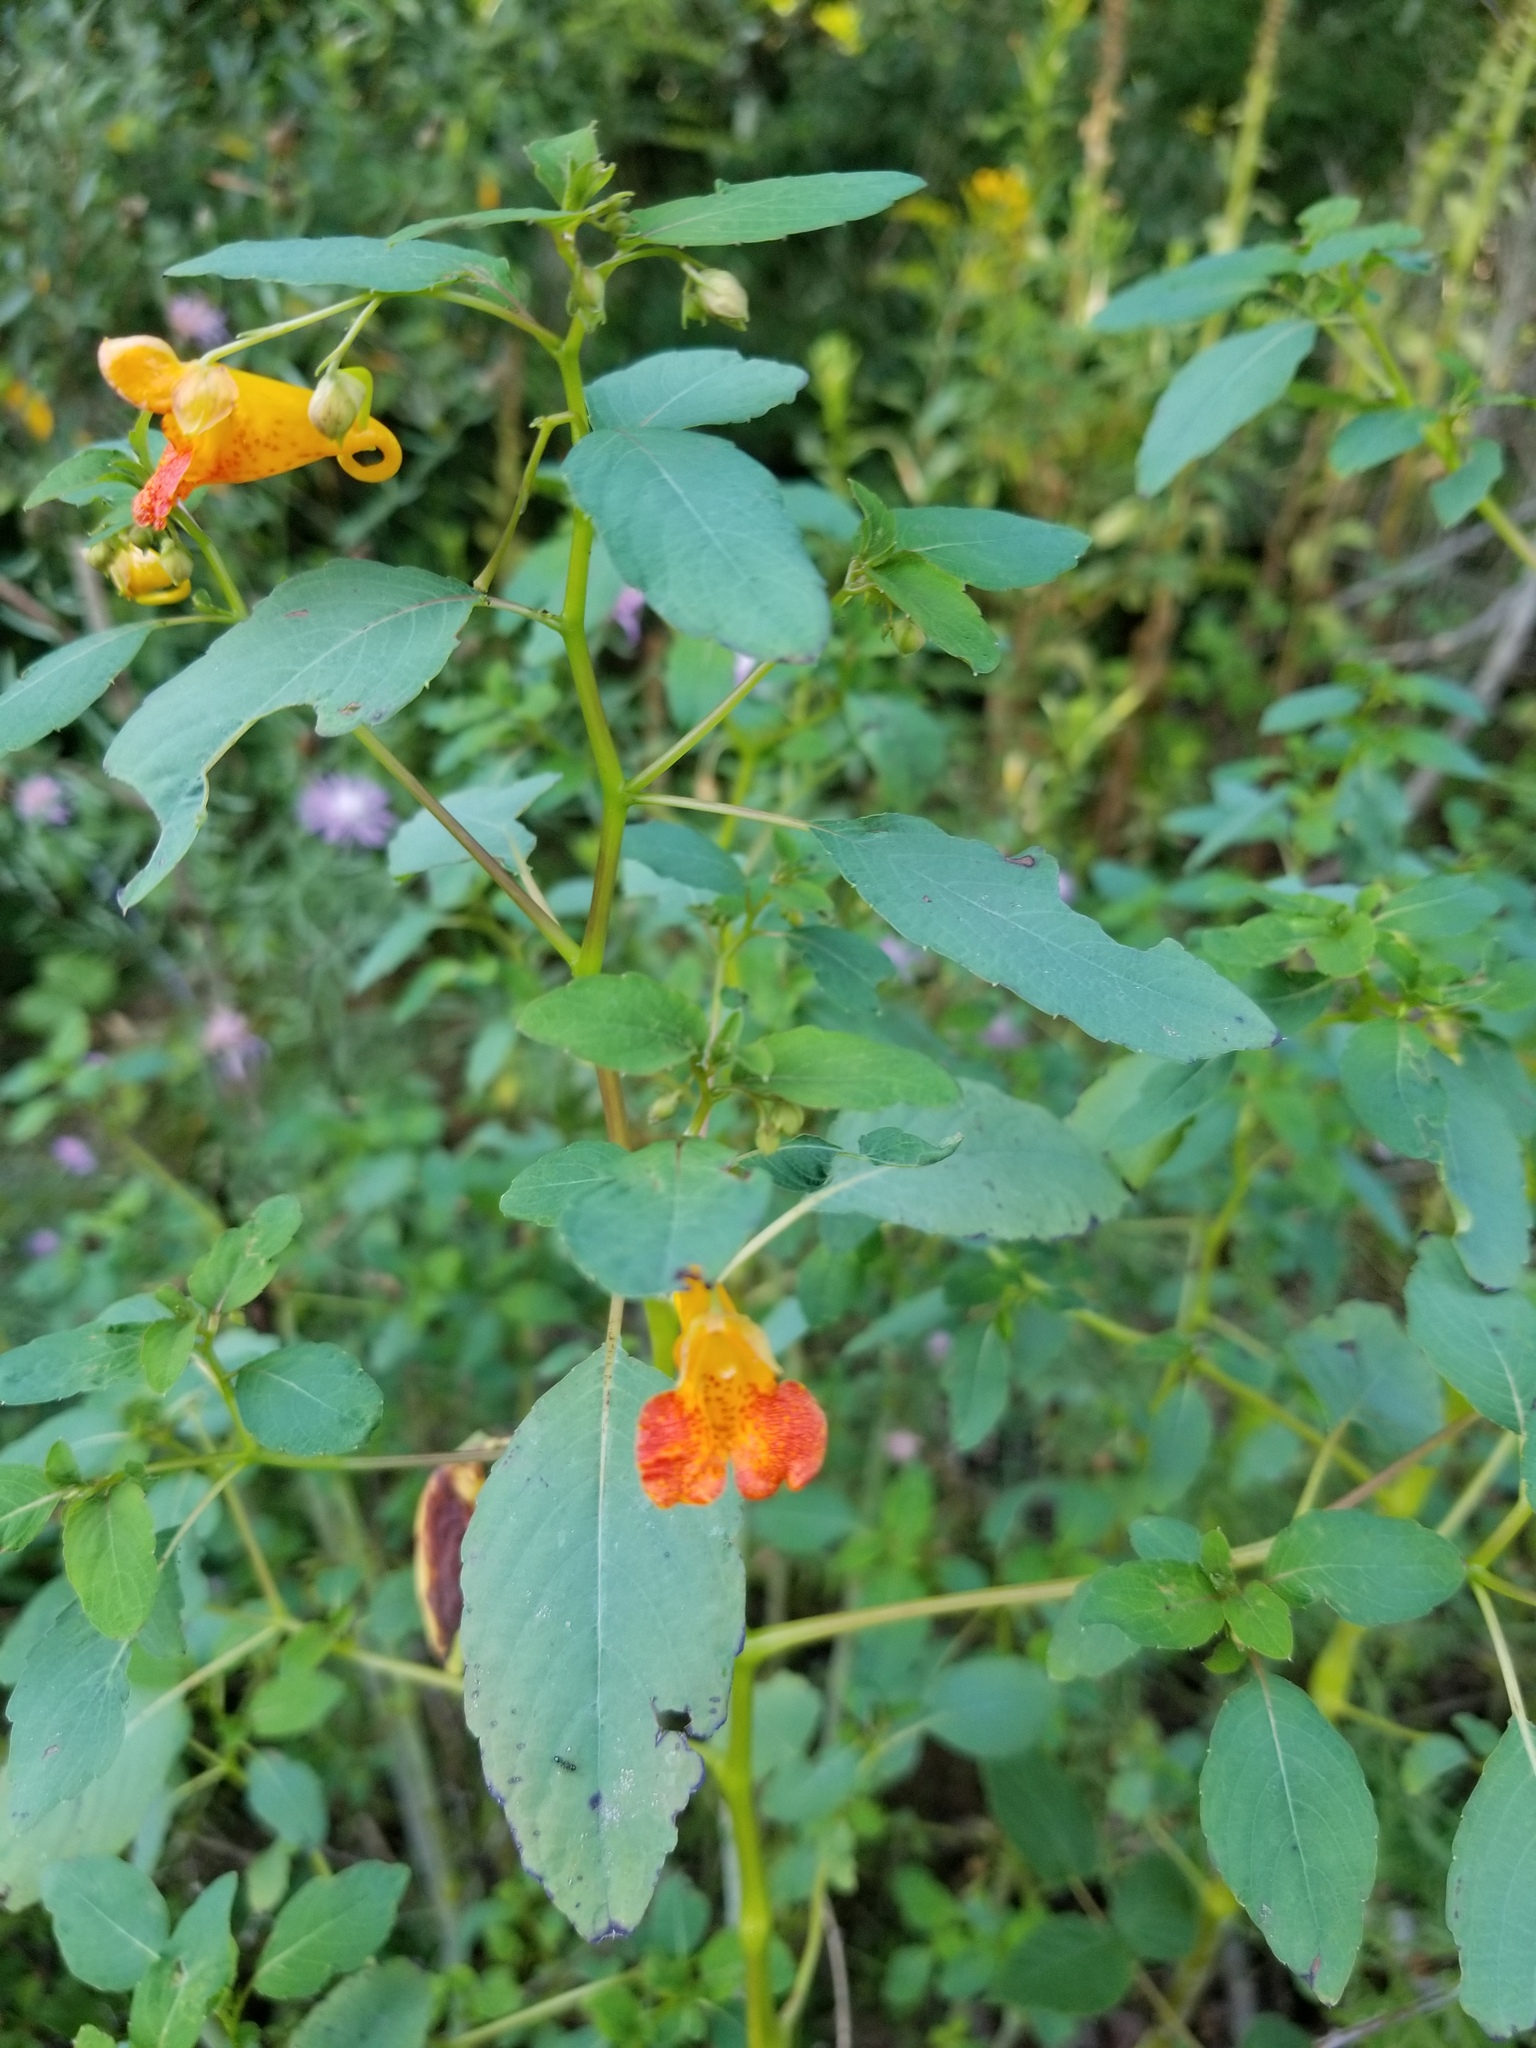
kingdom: Plantae
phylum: Tracheophyta
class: Magnoliopsida
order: Ericales
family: Balsaminaceae
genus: Impatiens
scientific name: Impatiens capensis
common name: Orange balsam
